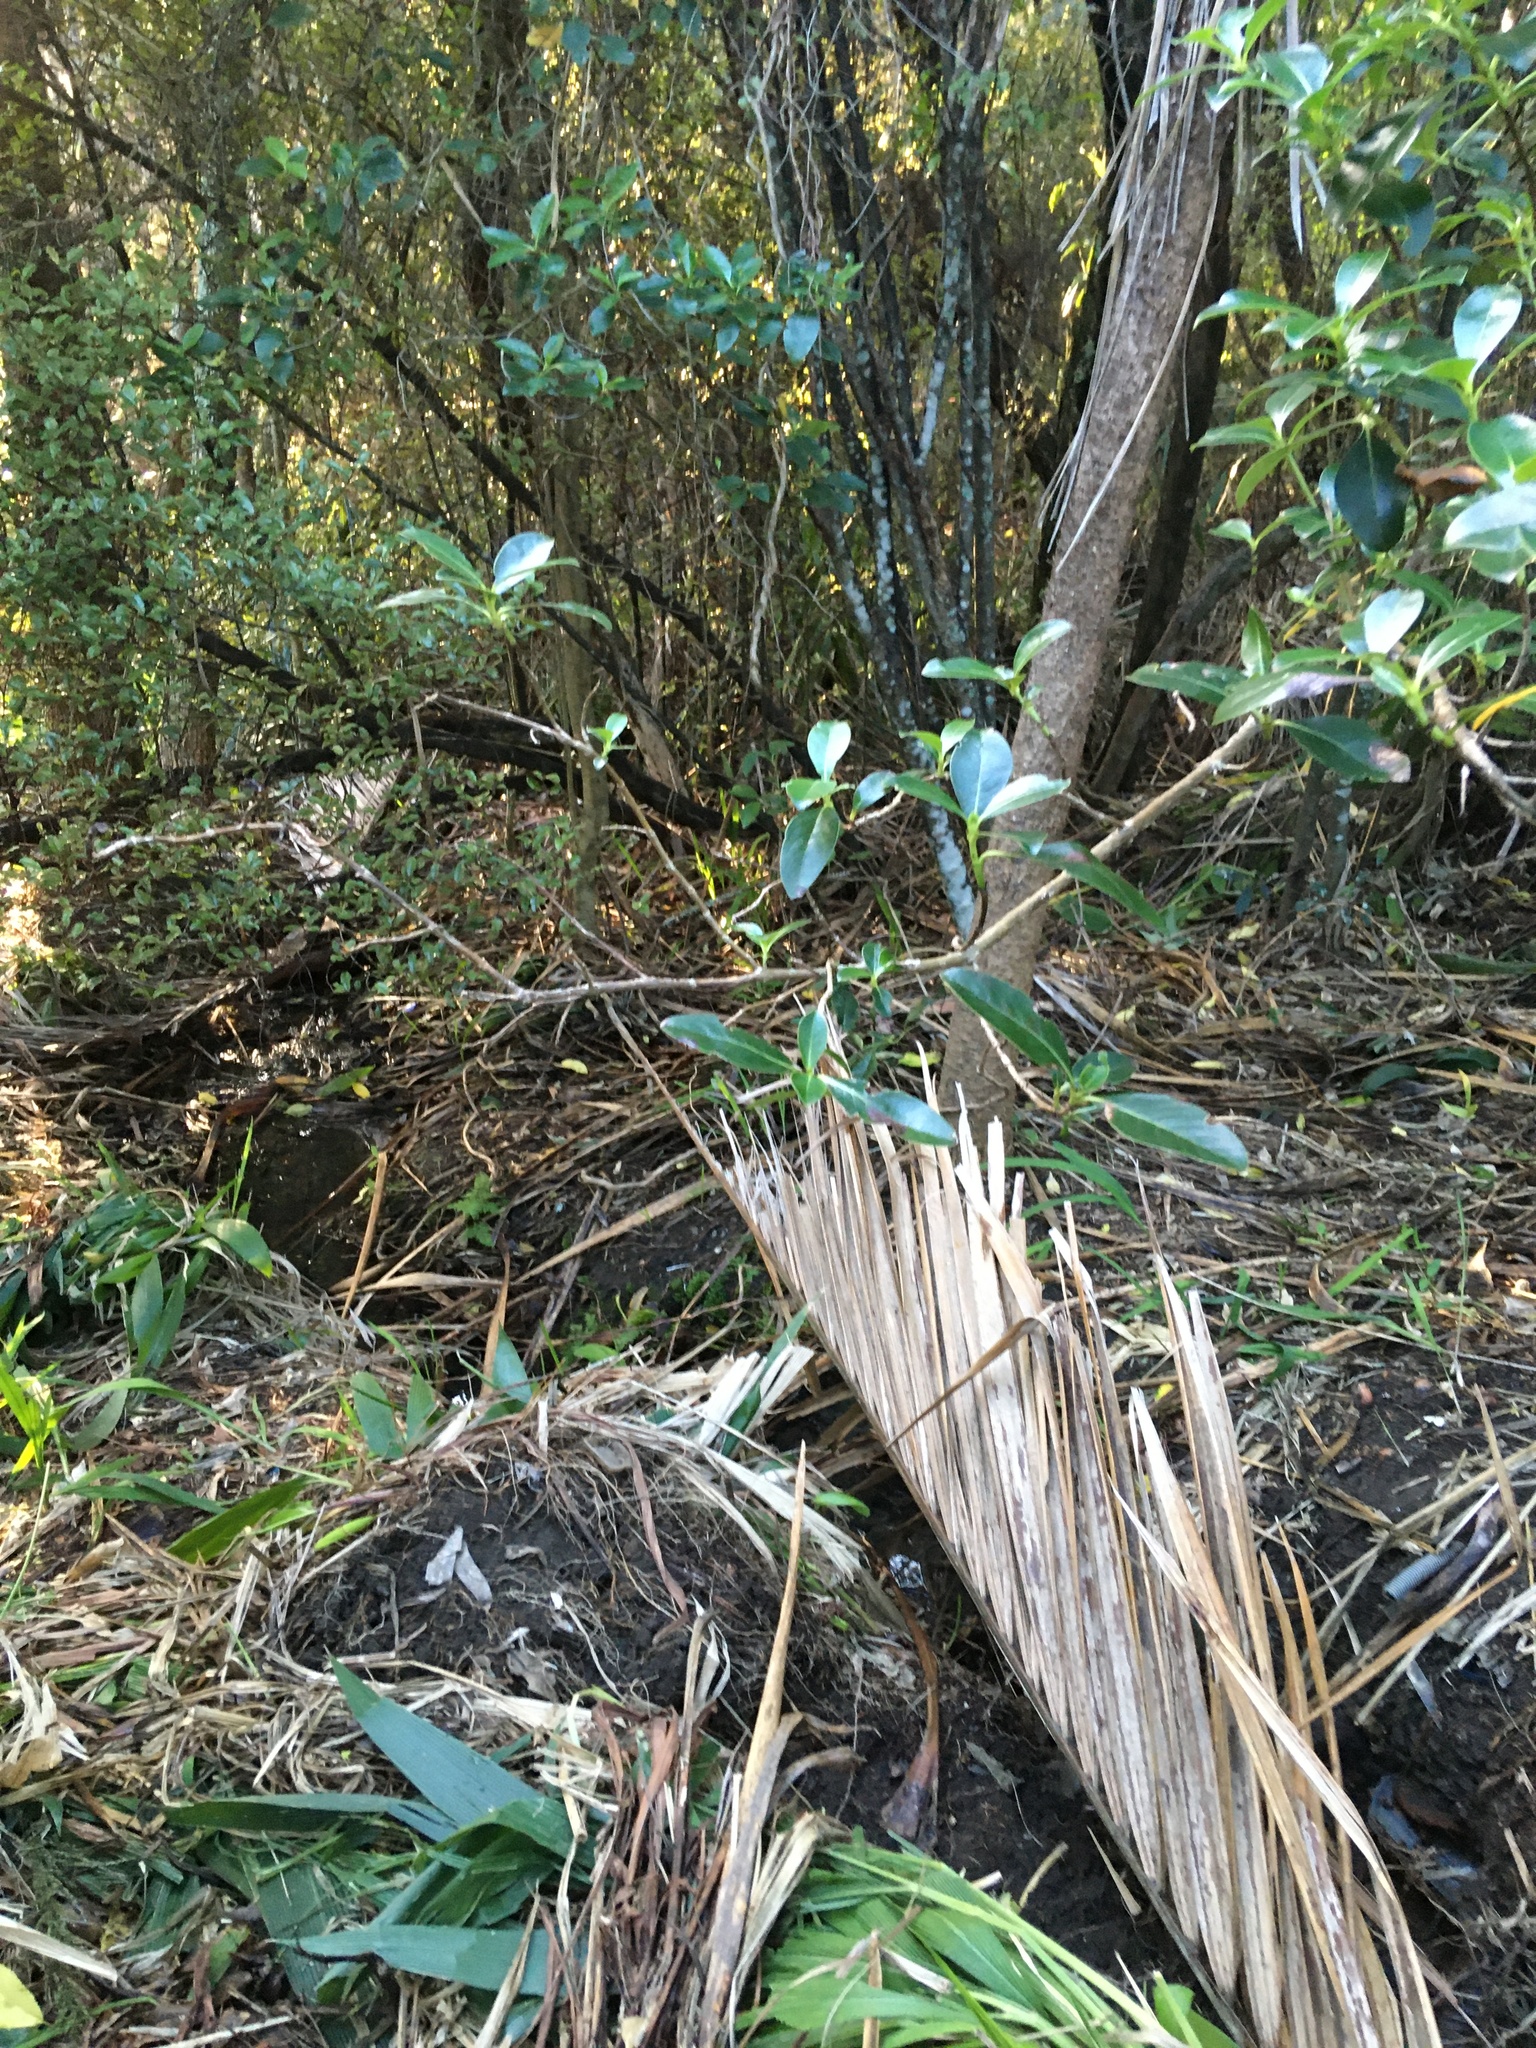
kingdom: Plantae
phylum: Tracheophyta
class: Magnoliopsida
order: Gentianales
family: Rubiaceae
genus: Coprosma
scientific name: Coprosma robusta
